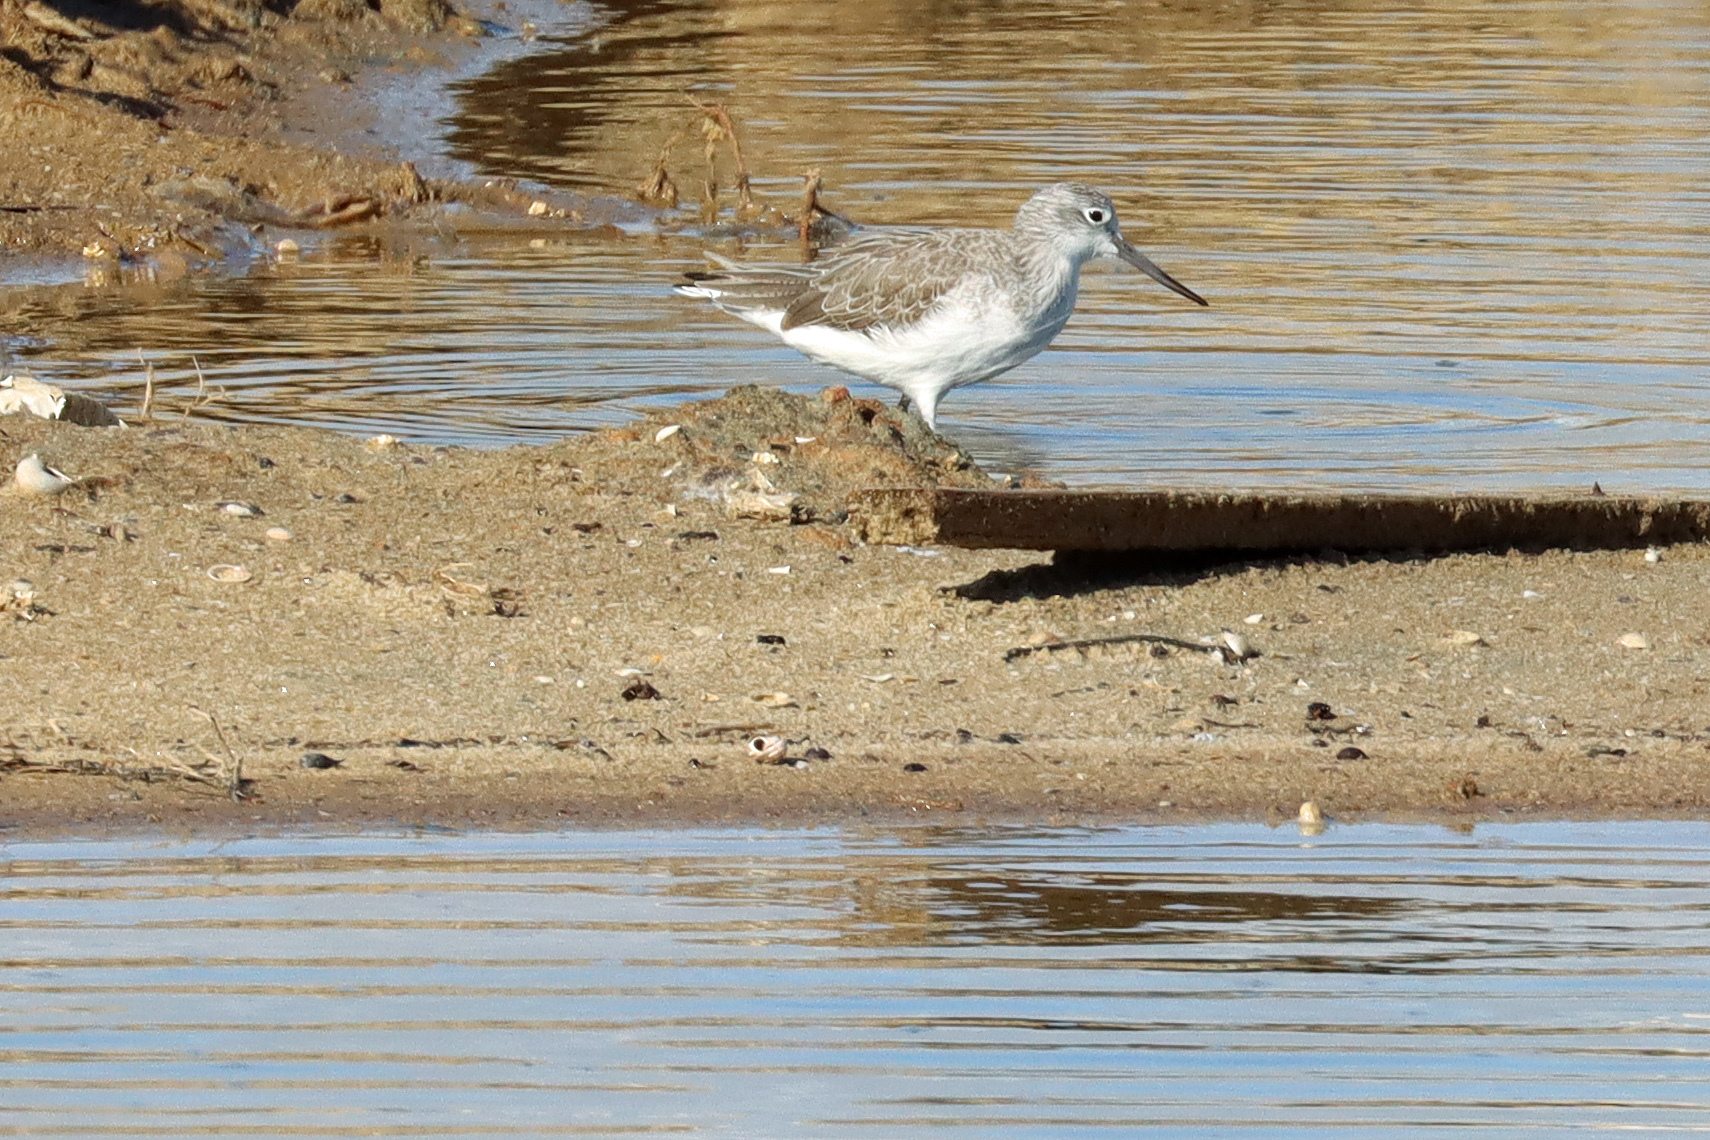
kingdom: Animalia
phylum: Chordata
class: Aves
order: Charadriiformes
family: Scolopacidae
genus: Tringa
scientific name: Tringa nebularia
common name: Common greenshank
